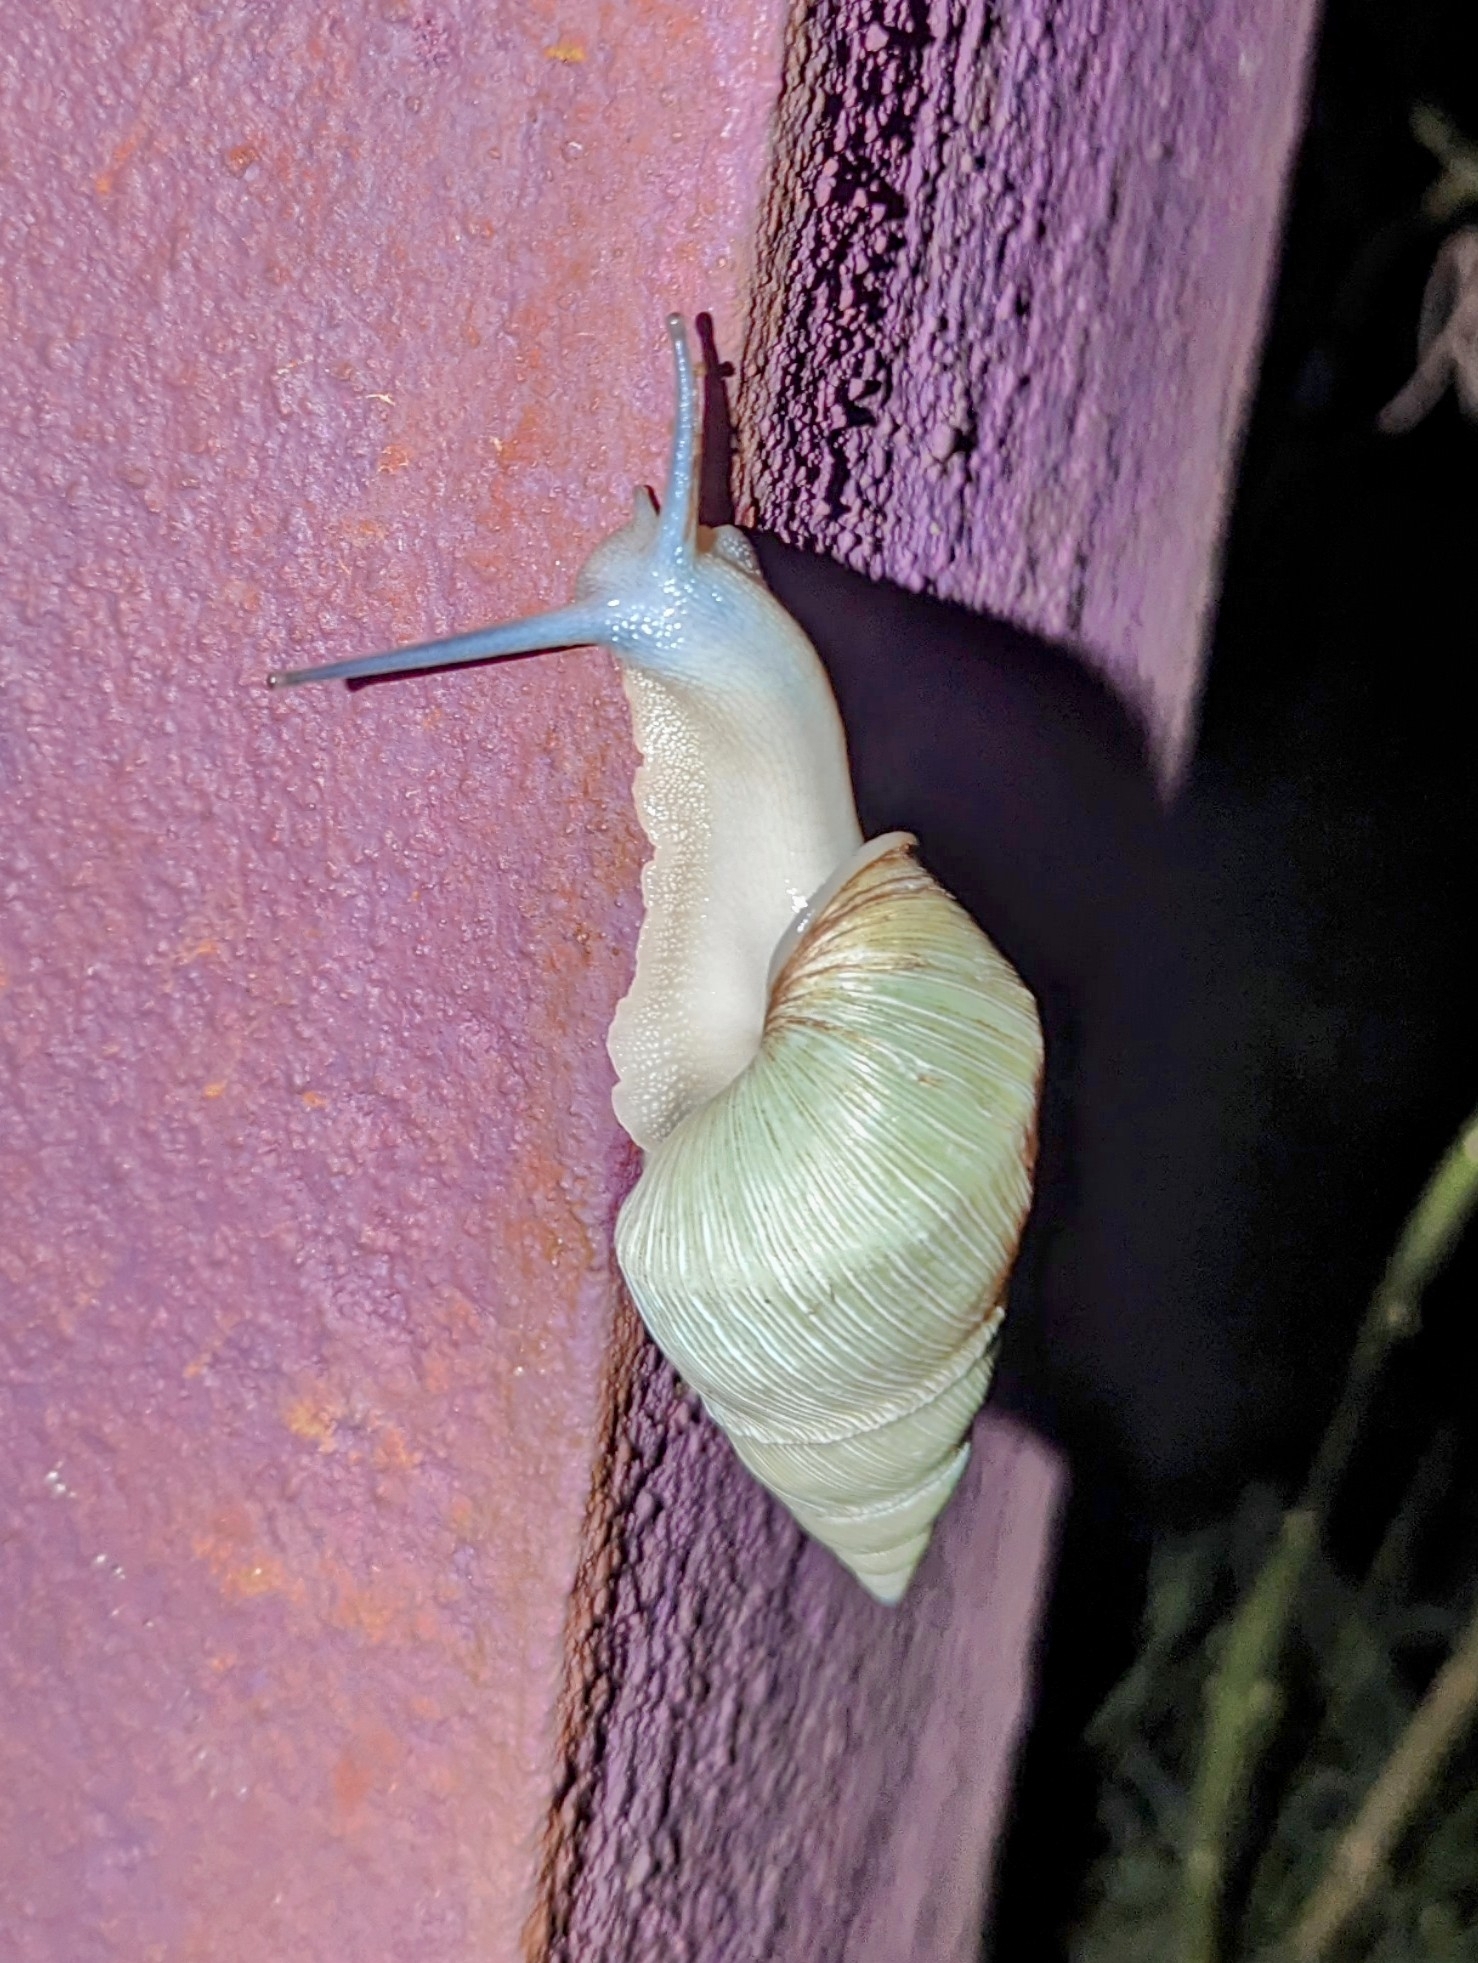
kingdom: Animalia
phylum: Mollusca
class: Gastropoda
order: Stylommatophora
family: Achatinidae
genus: Atopocochlis
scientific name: Atopocochlis exaratus
